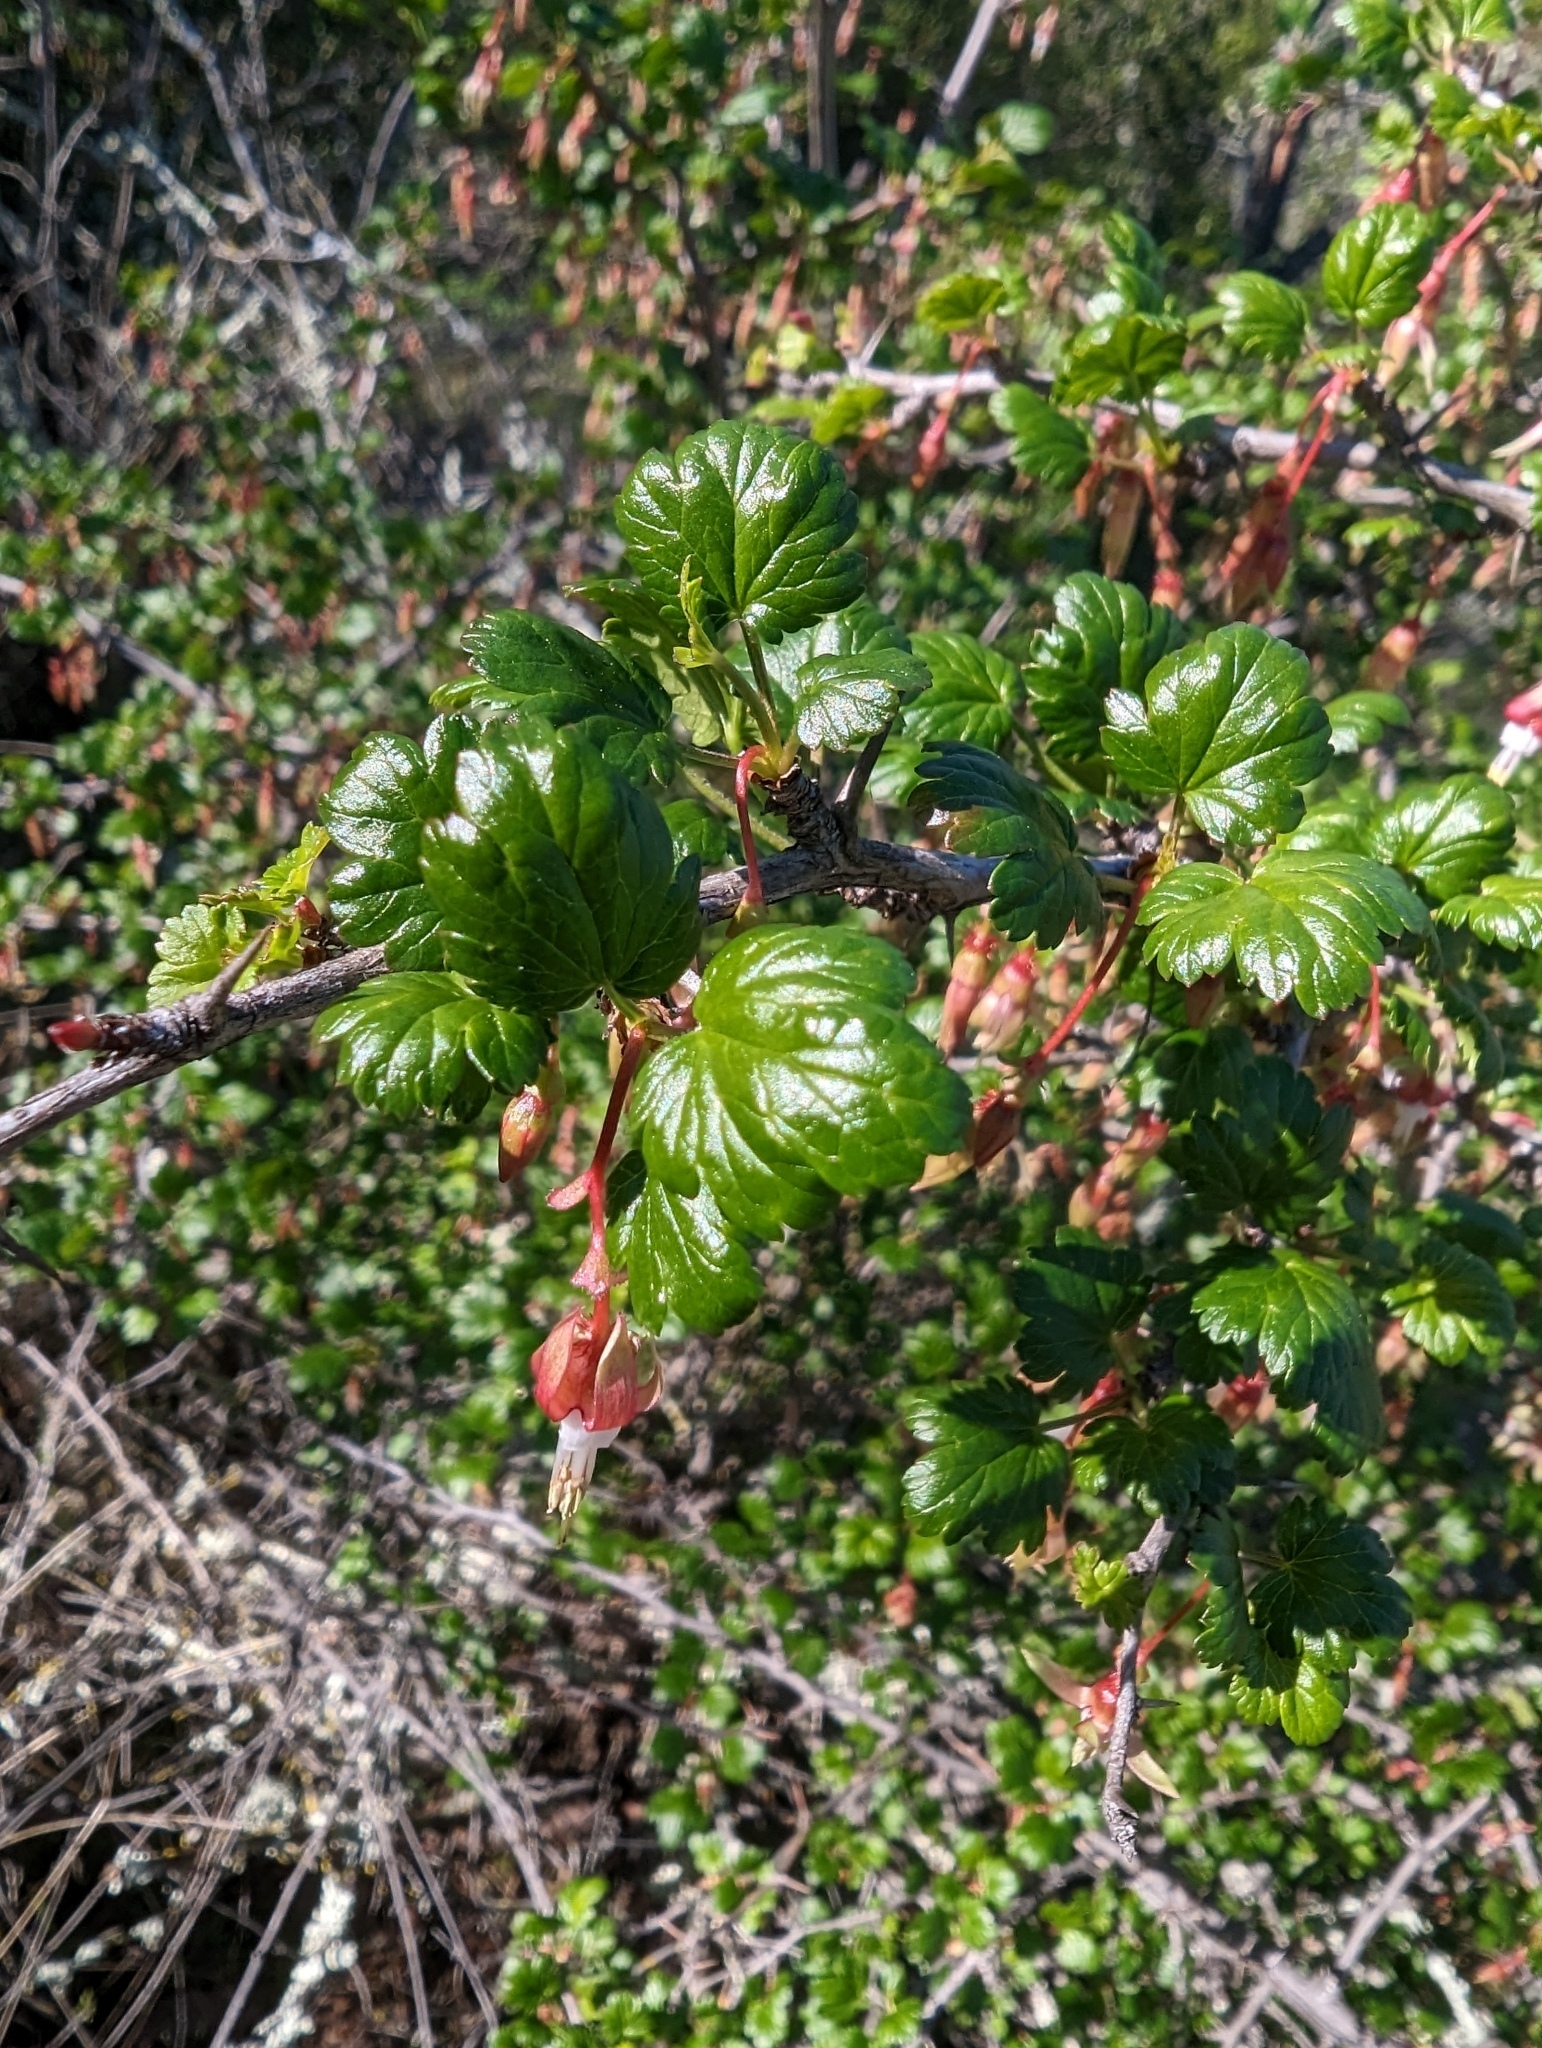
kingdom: Plantae
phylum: Tracheophyta
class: Magnoliopsida
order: Saxifragales
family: Grossulariaceae
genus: Ribes
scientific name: Ribes californicum
